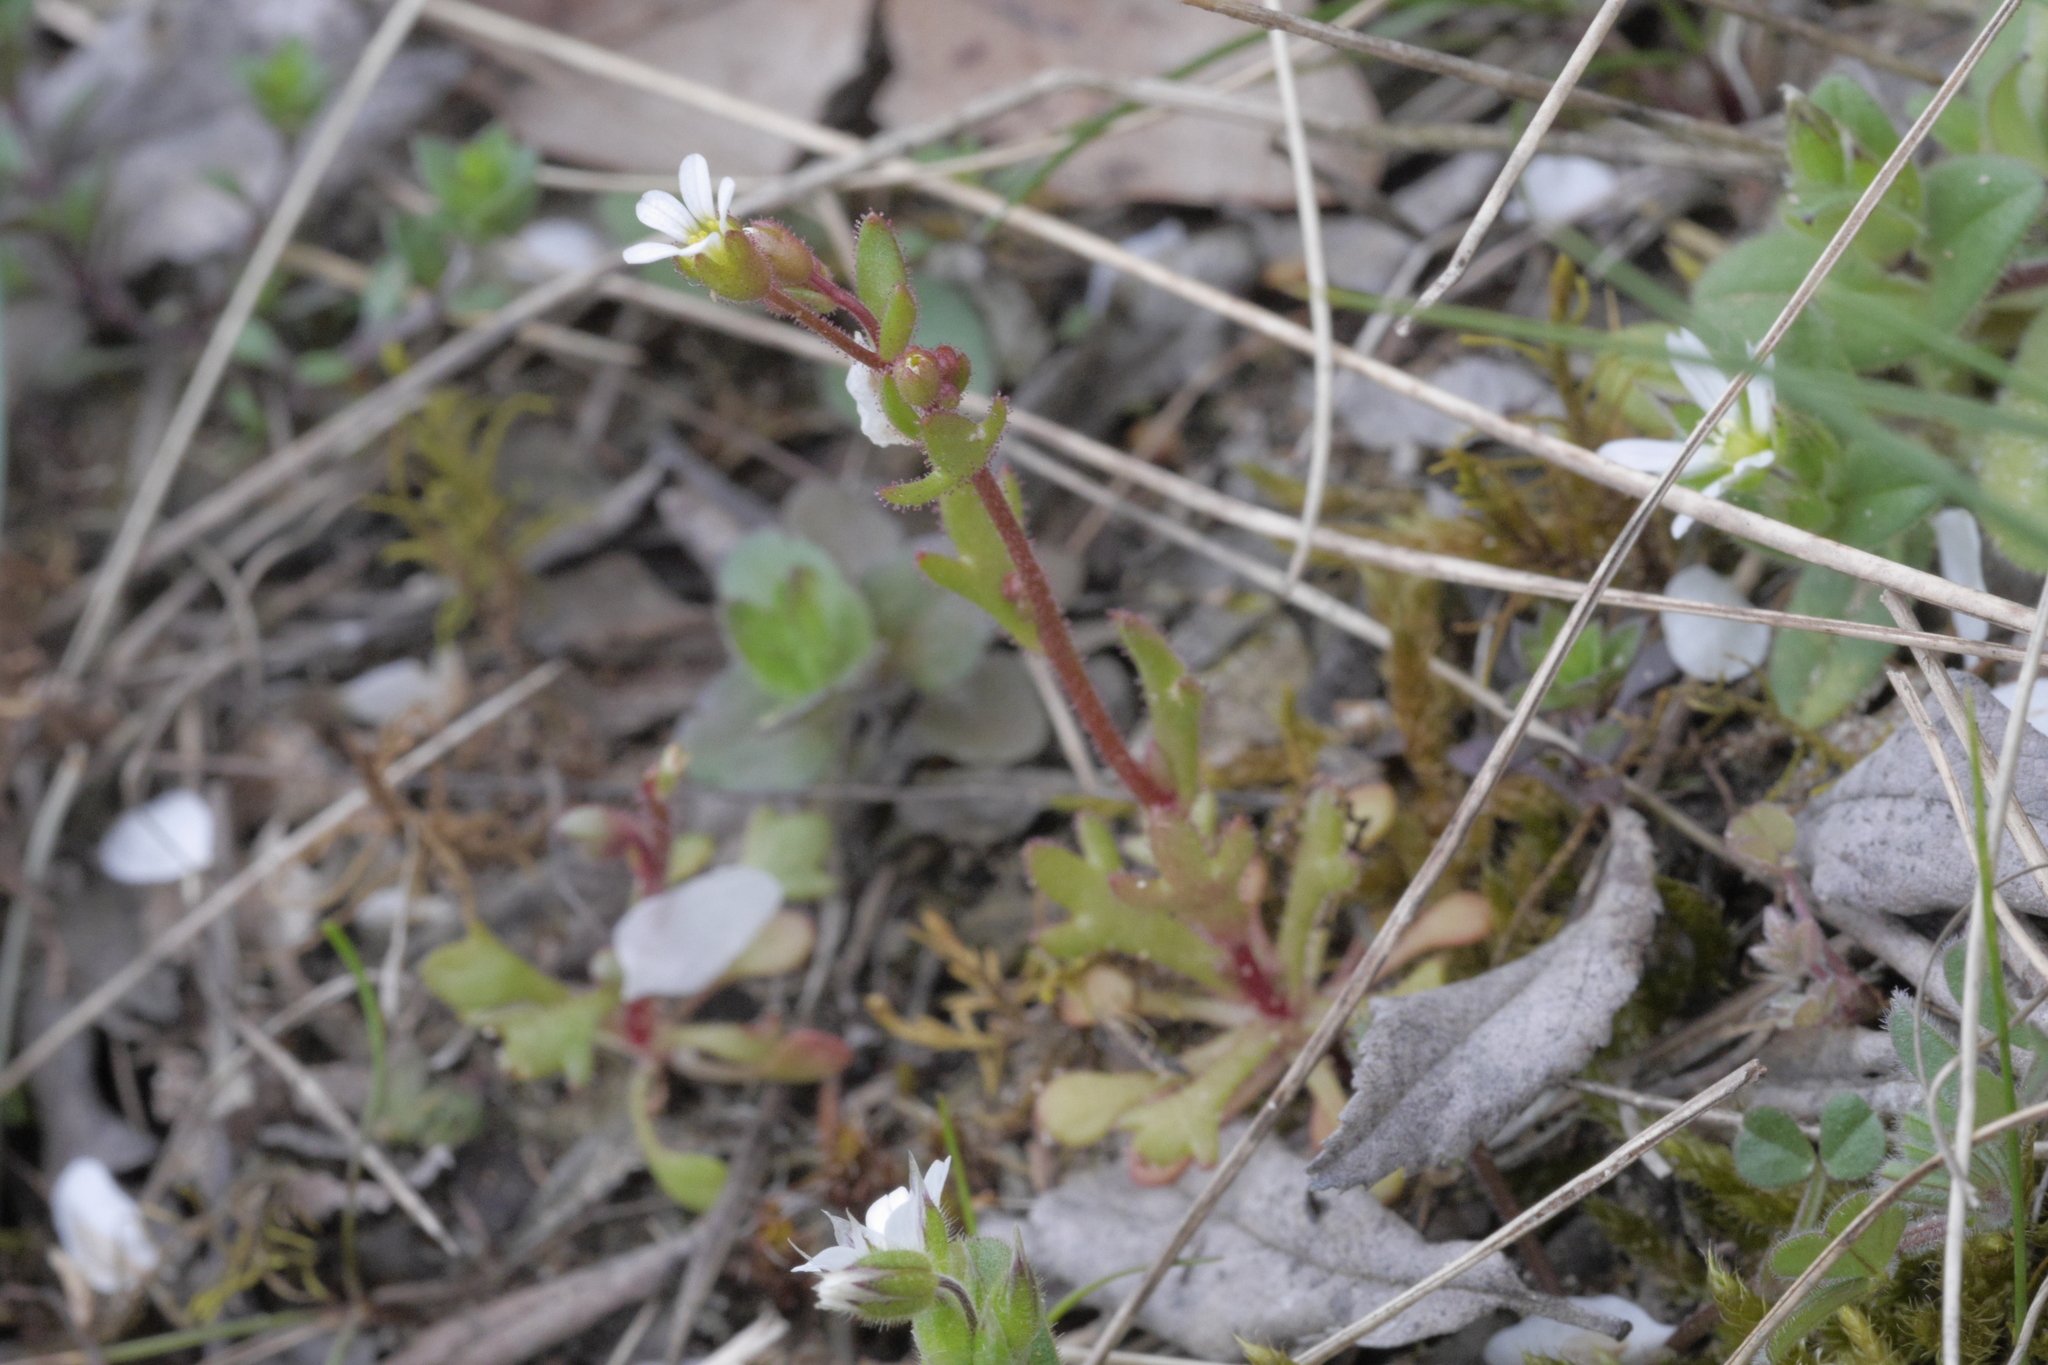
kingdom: Plantae
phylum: Tracheophyta
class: Magnoliopsida
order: Saxifragales
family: Saxifragaceae
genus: Saxifraga
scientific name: Saxifraga tridactylites
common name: Rue-leaved saxifrage
